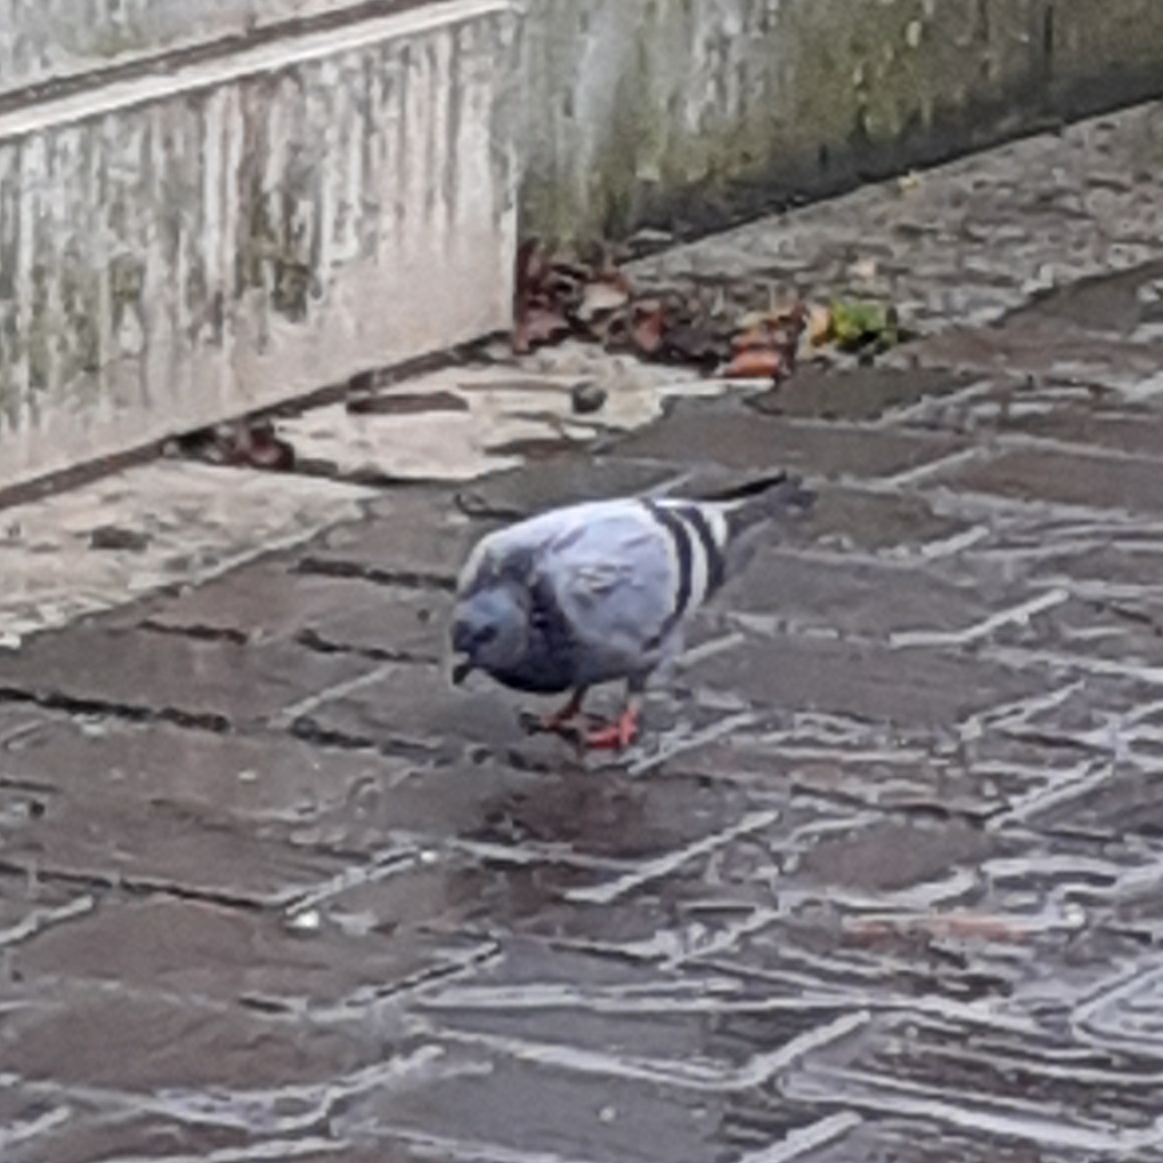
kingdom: Animalia
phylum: Chordata
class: Aves
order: Columbiformes
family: Columbidae
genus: Columba
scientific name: Columba livia
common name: Rock pigeon
